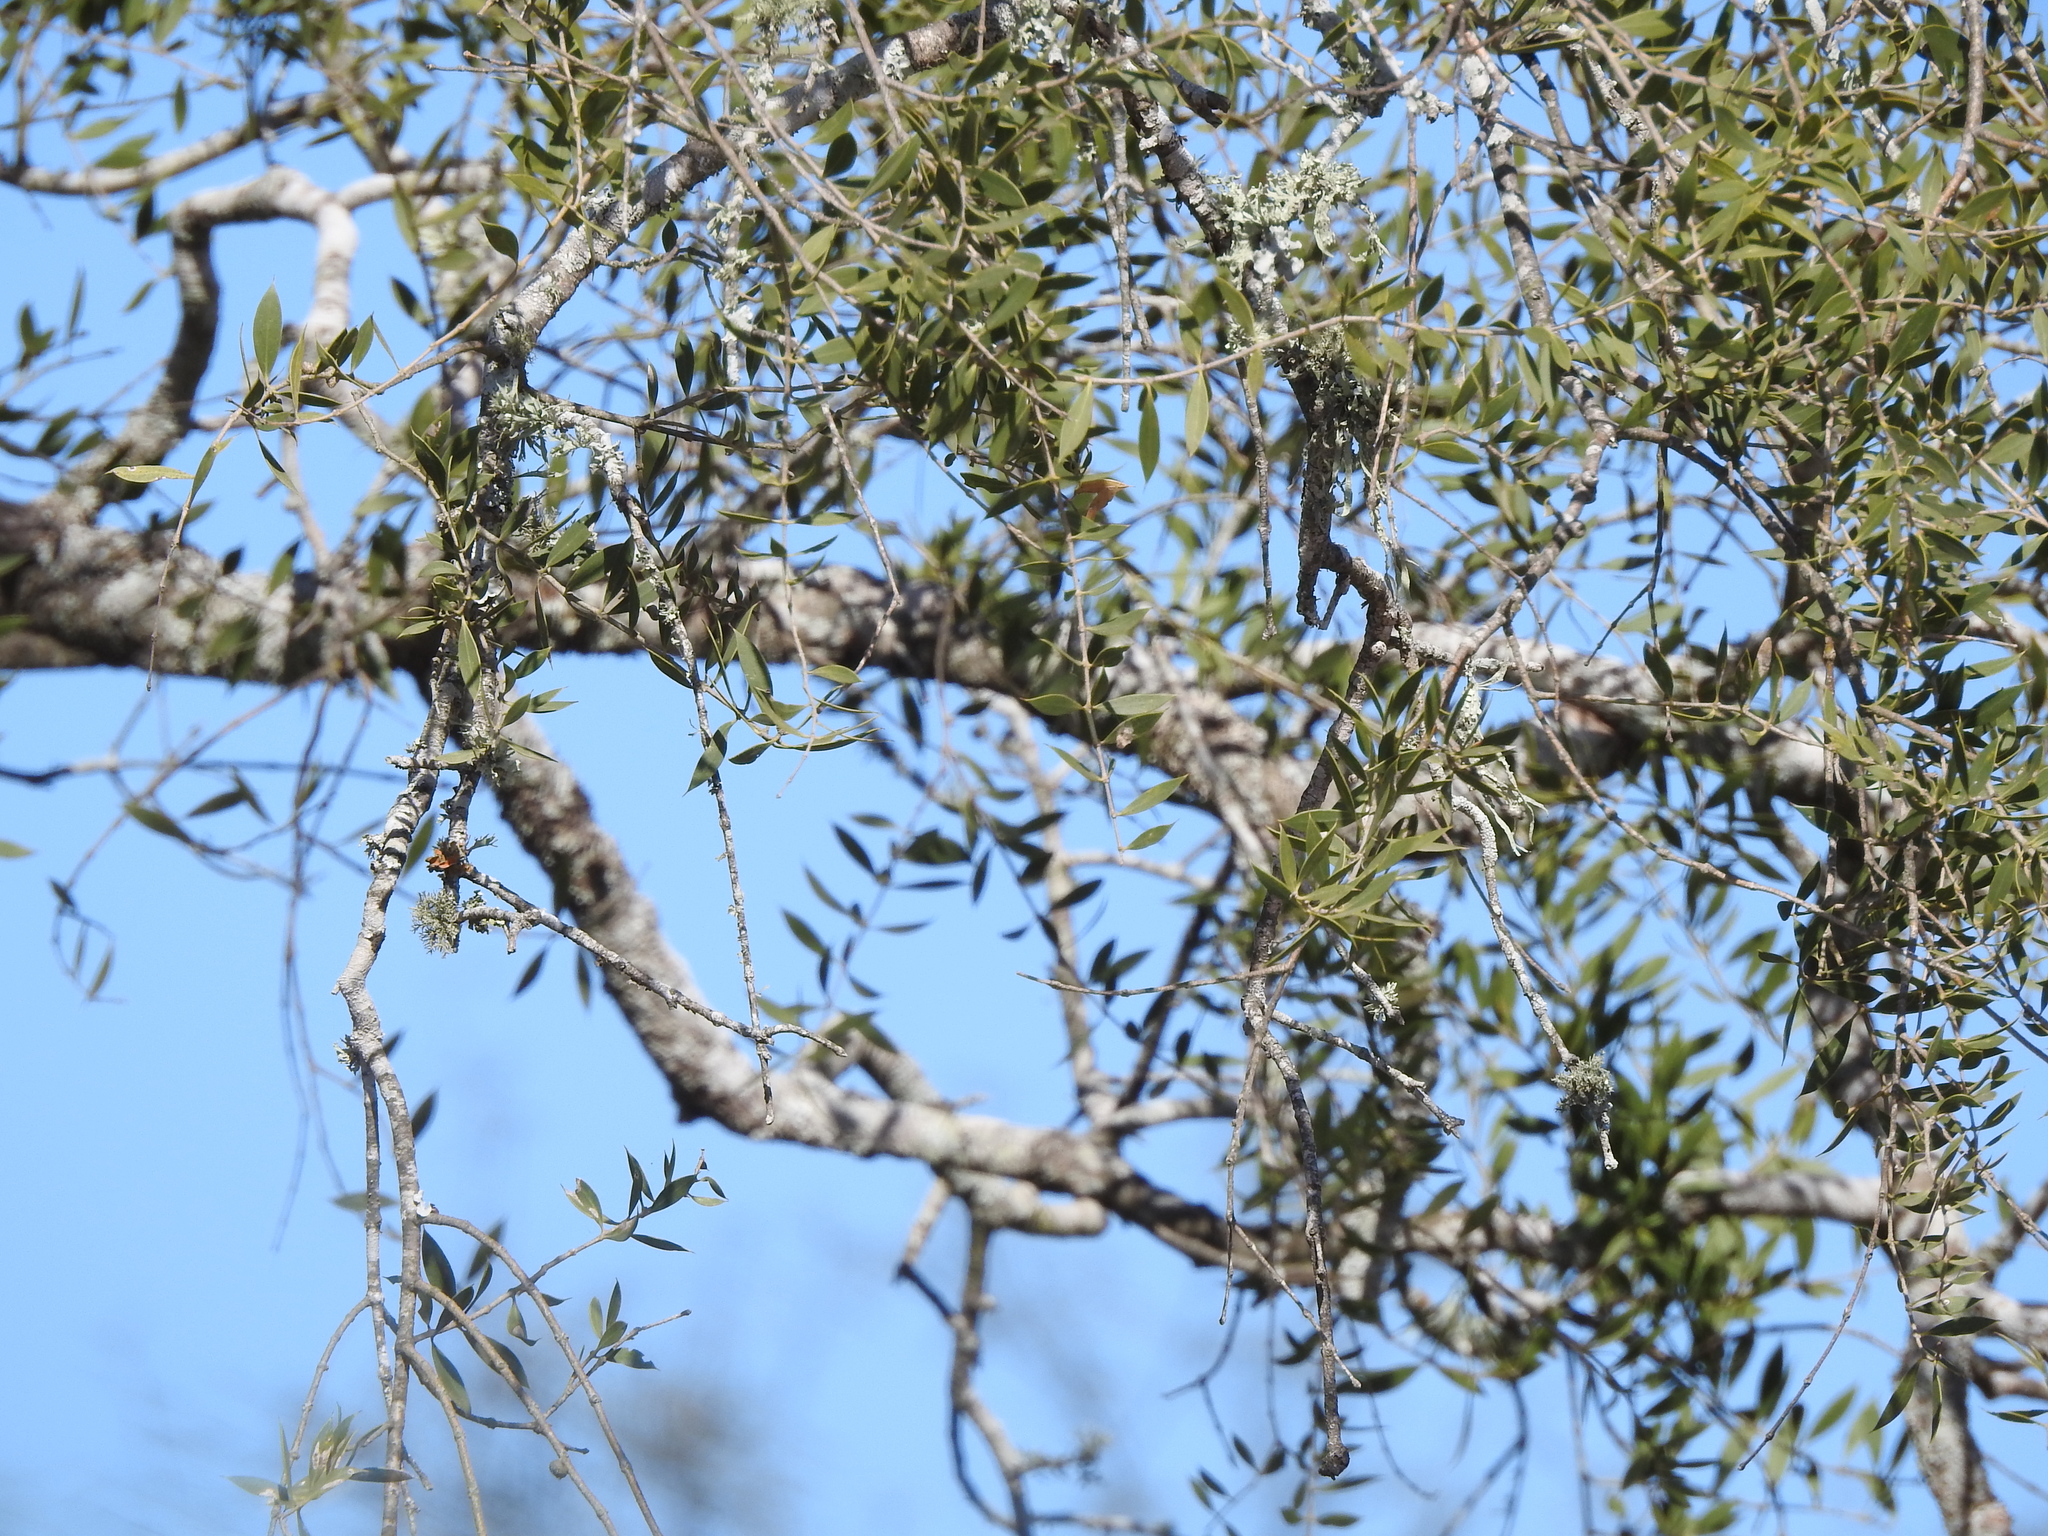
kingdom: Plantae
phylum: Tracheophyta
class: Magnoliopsida
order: Gentianales
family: Apocynaceae
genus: Aspidosperma
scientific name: Aspidosperma quebracho-blanco
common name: White quebracho
